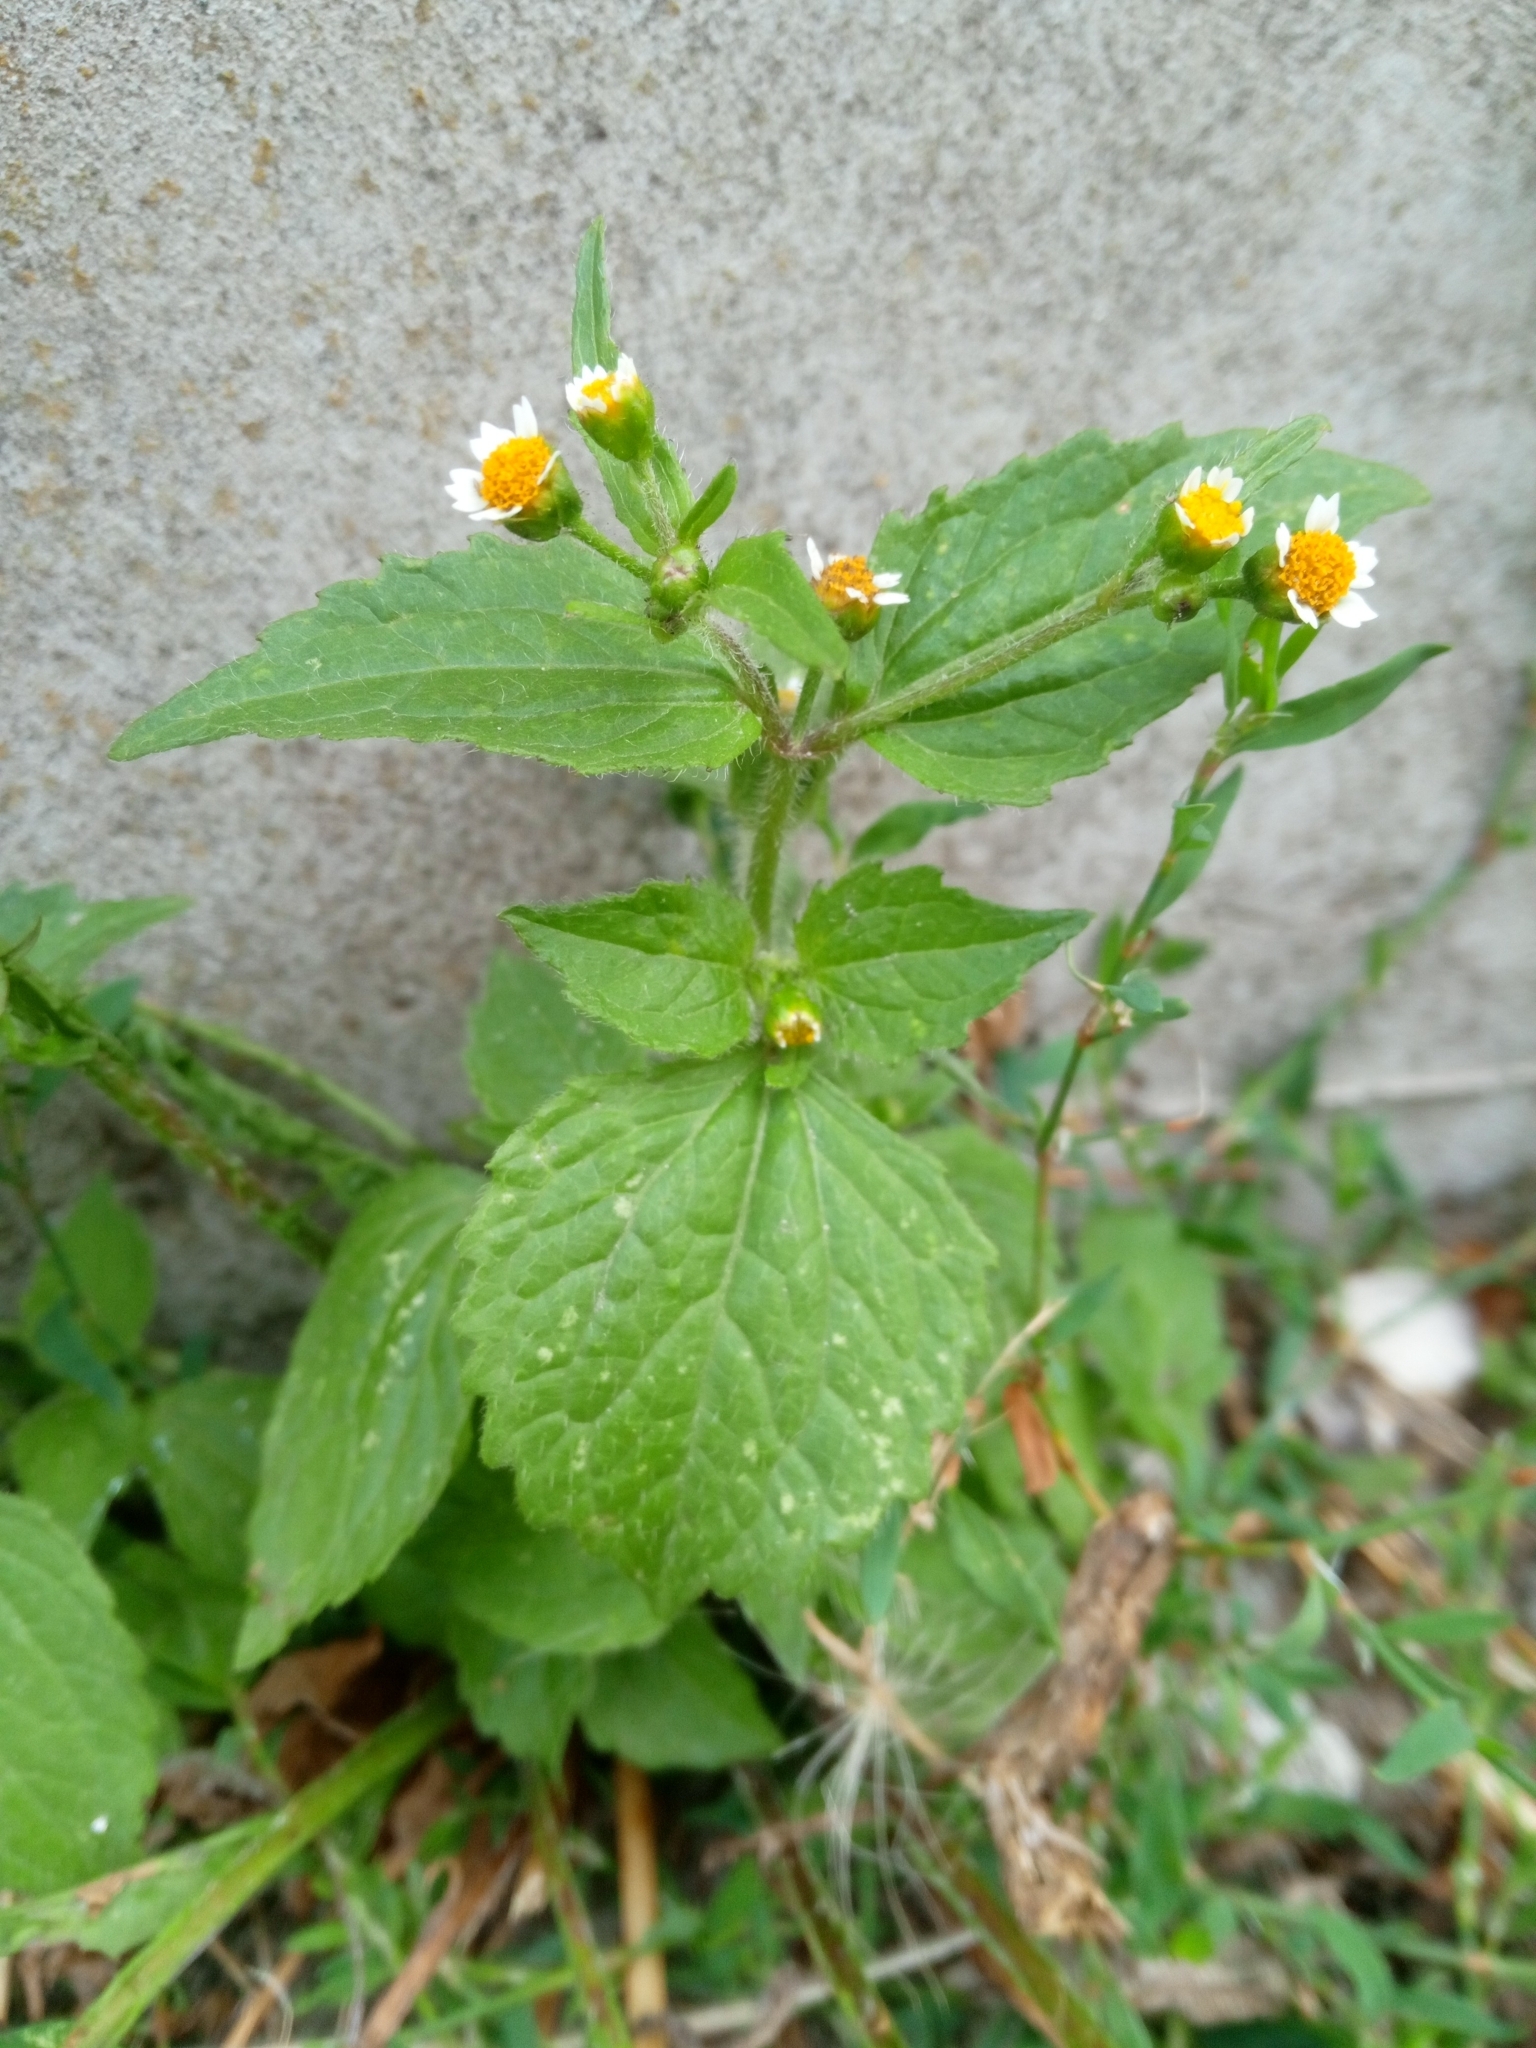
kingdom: Plantae
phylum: Tracheophyta
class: Magnoliopsida
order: Asterales
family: Asteraceae
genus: Galinsoga
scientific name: Galinsoga quadriradiata
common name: Shaggy soldier
